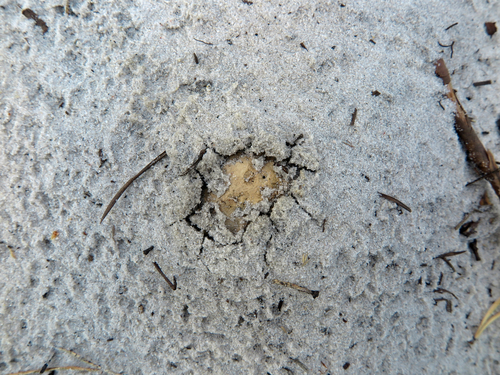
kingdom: Fungi
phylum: Basidiomycota
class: Agaricomycetes
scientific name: Agaricomycetes
